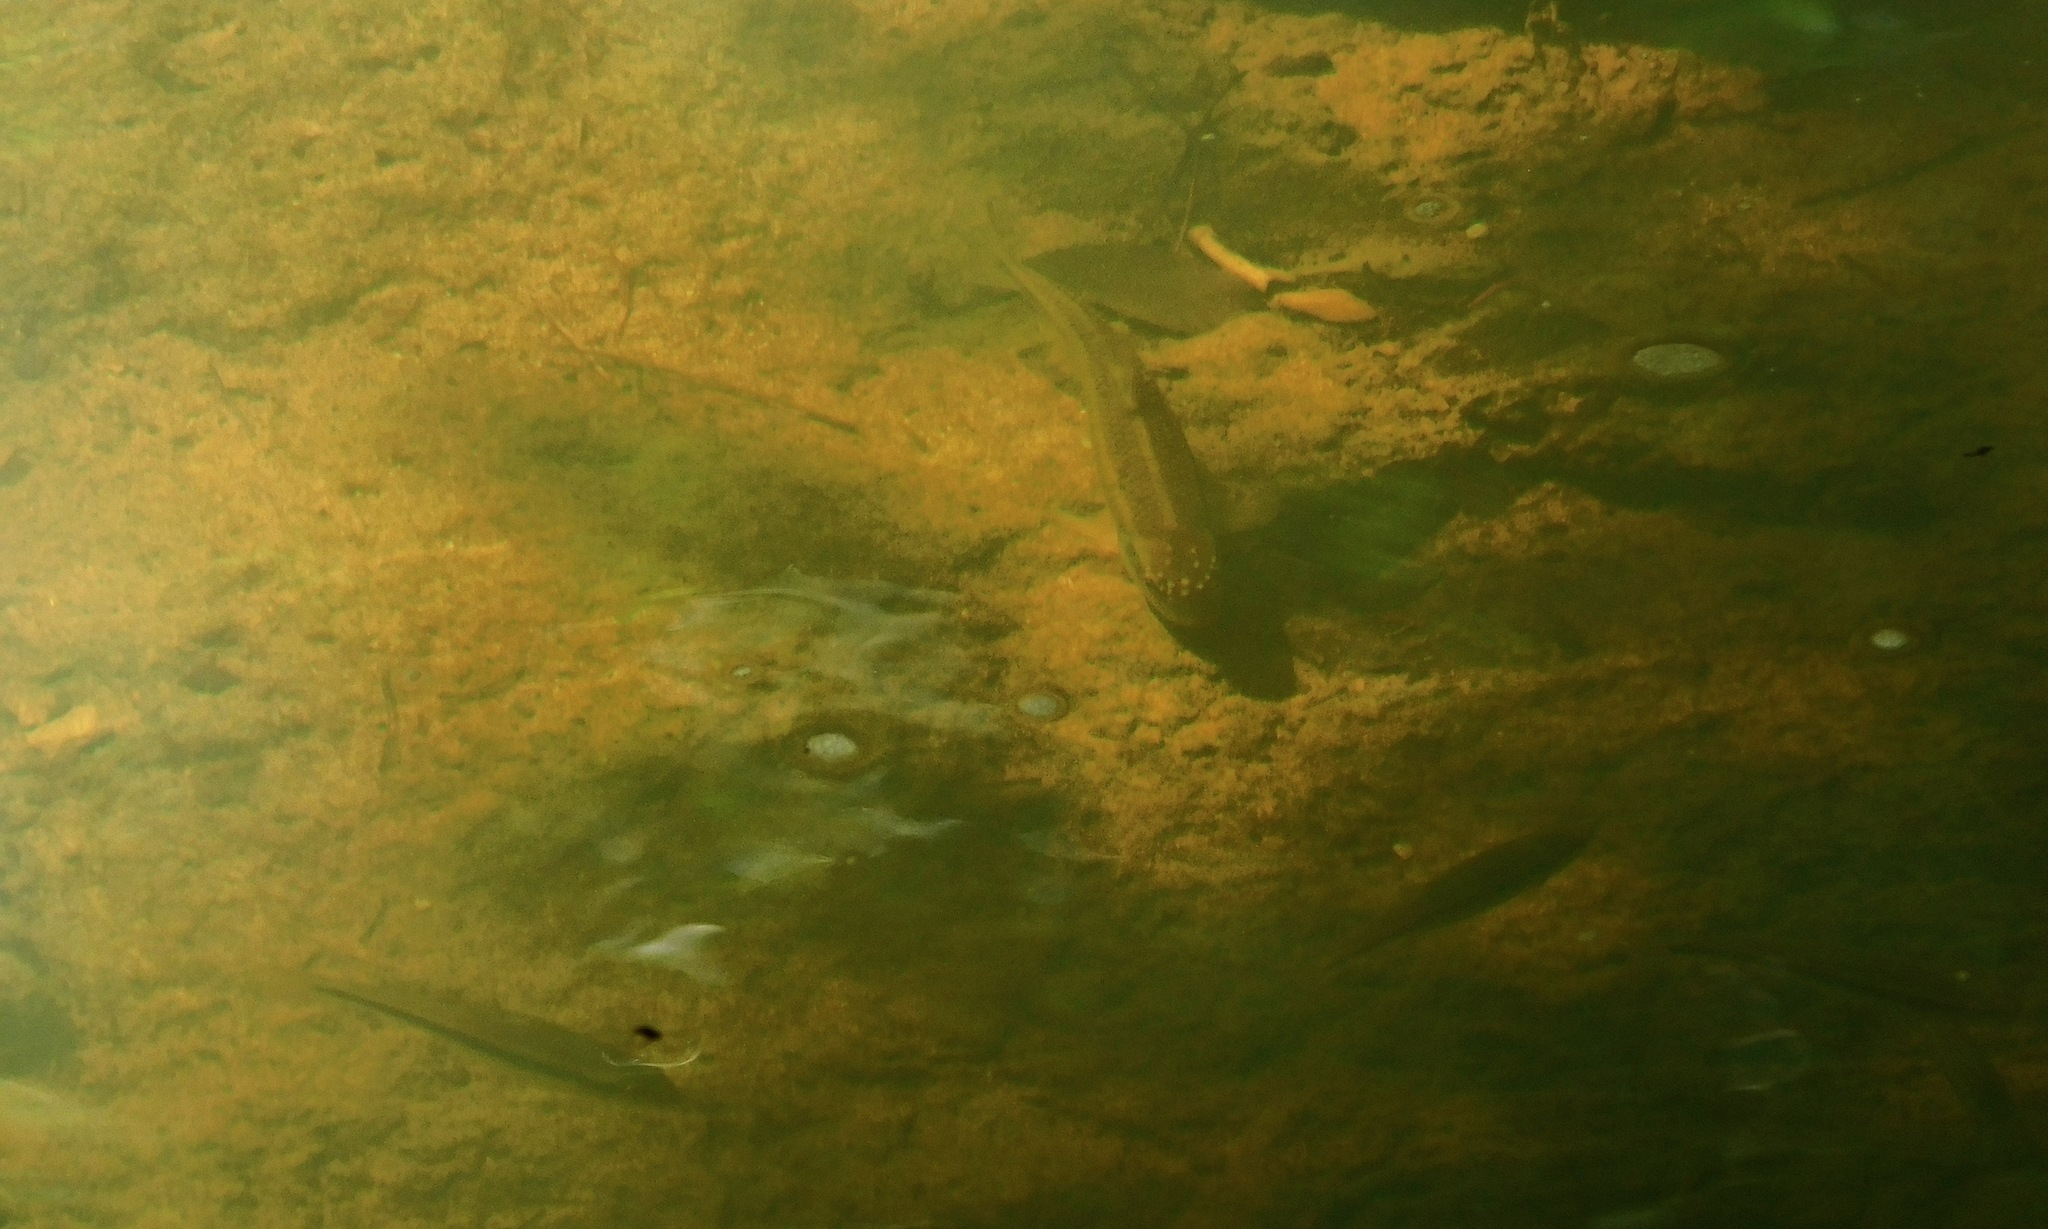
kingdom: Animalia
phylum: Chordata
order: Cypriniformes
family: Cyprinidae
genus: Nocomis
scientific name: Nocomis leptocephalus
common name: Bluehead chub
